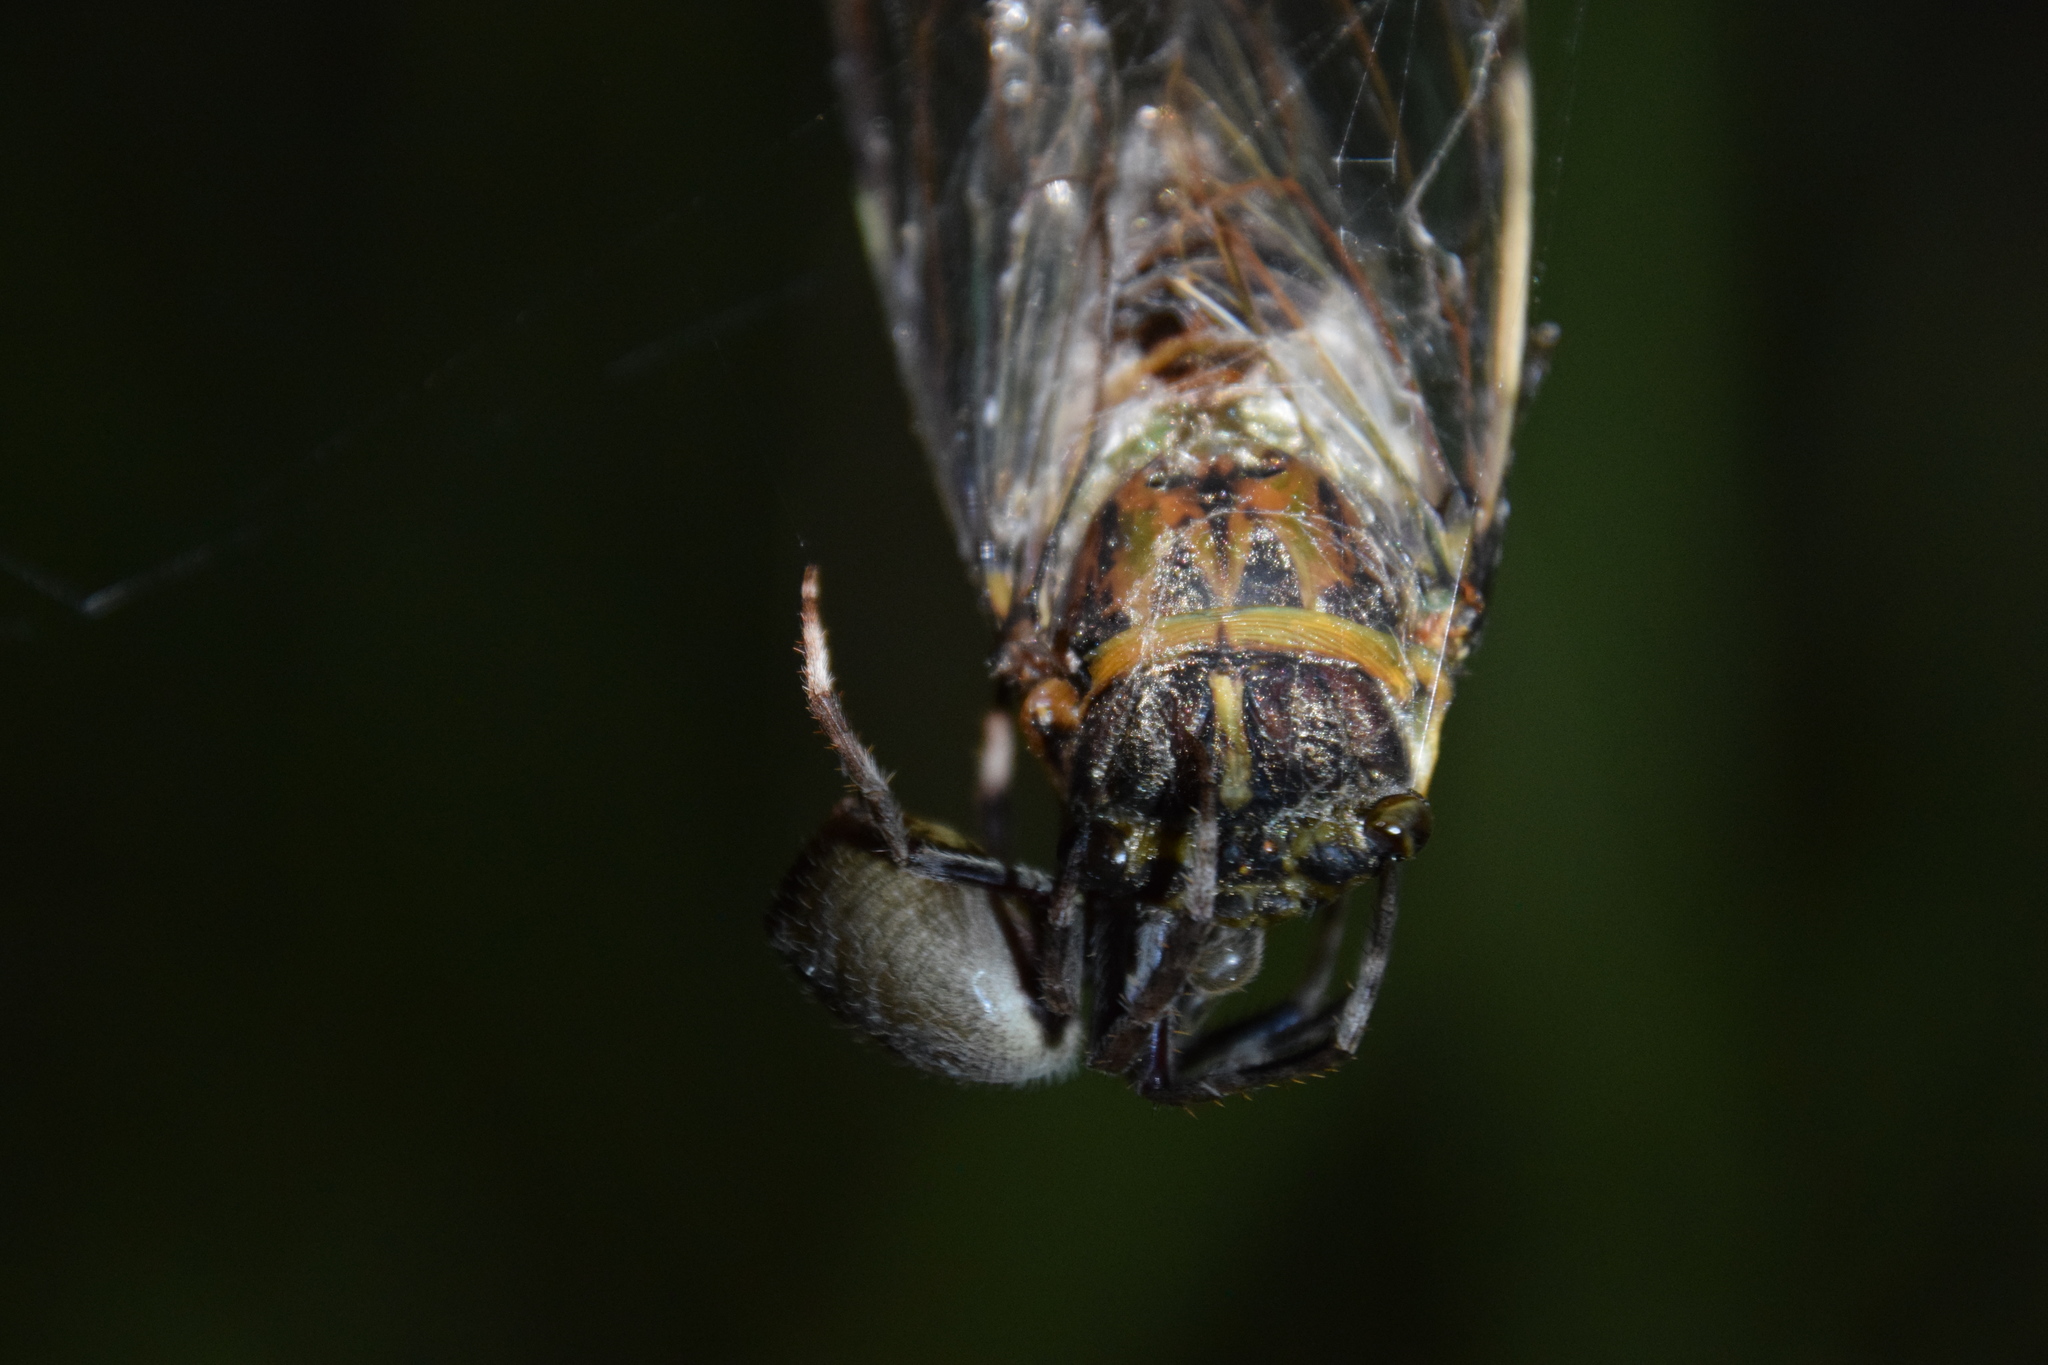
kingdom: Animalia
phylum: Arthropoda
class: Insecta
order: Hemiptera
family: Cicadidae
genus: Arunta
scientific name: Arunta perulata
